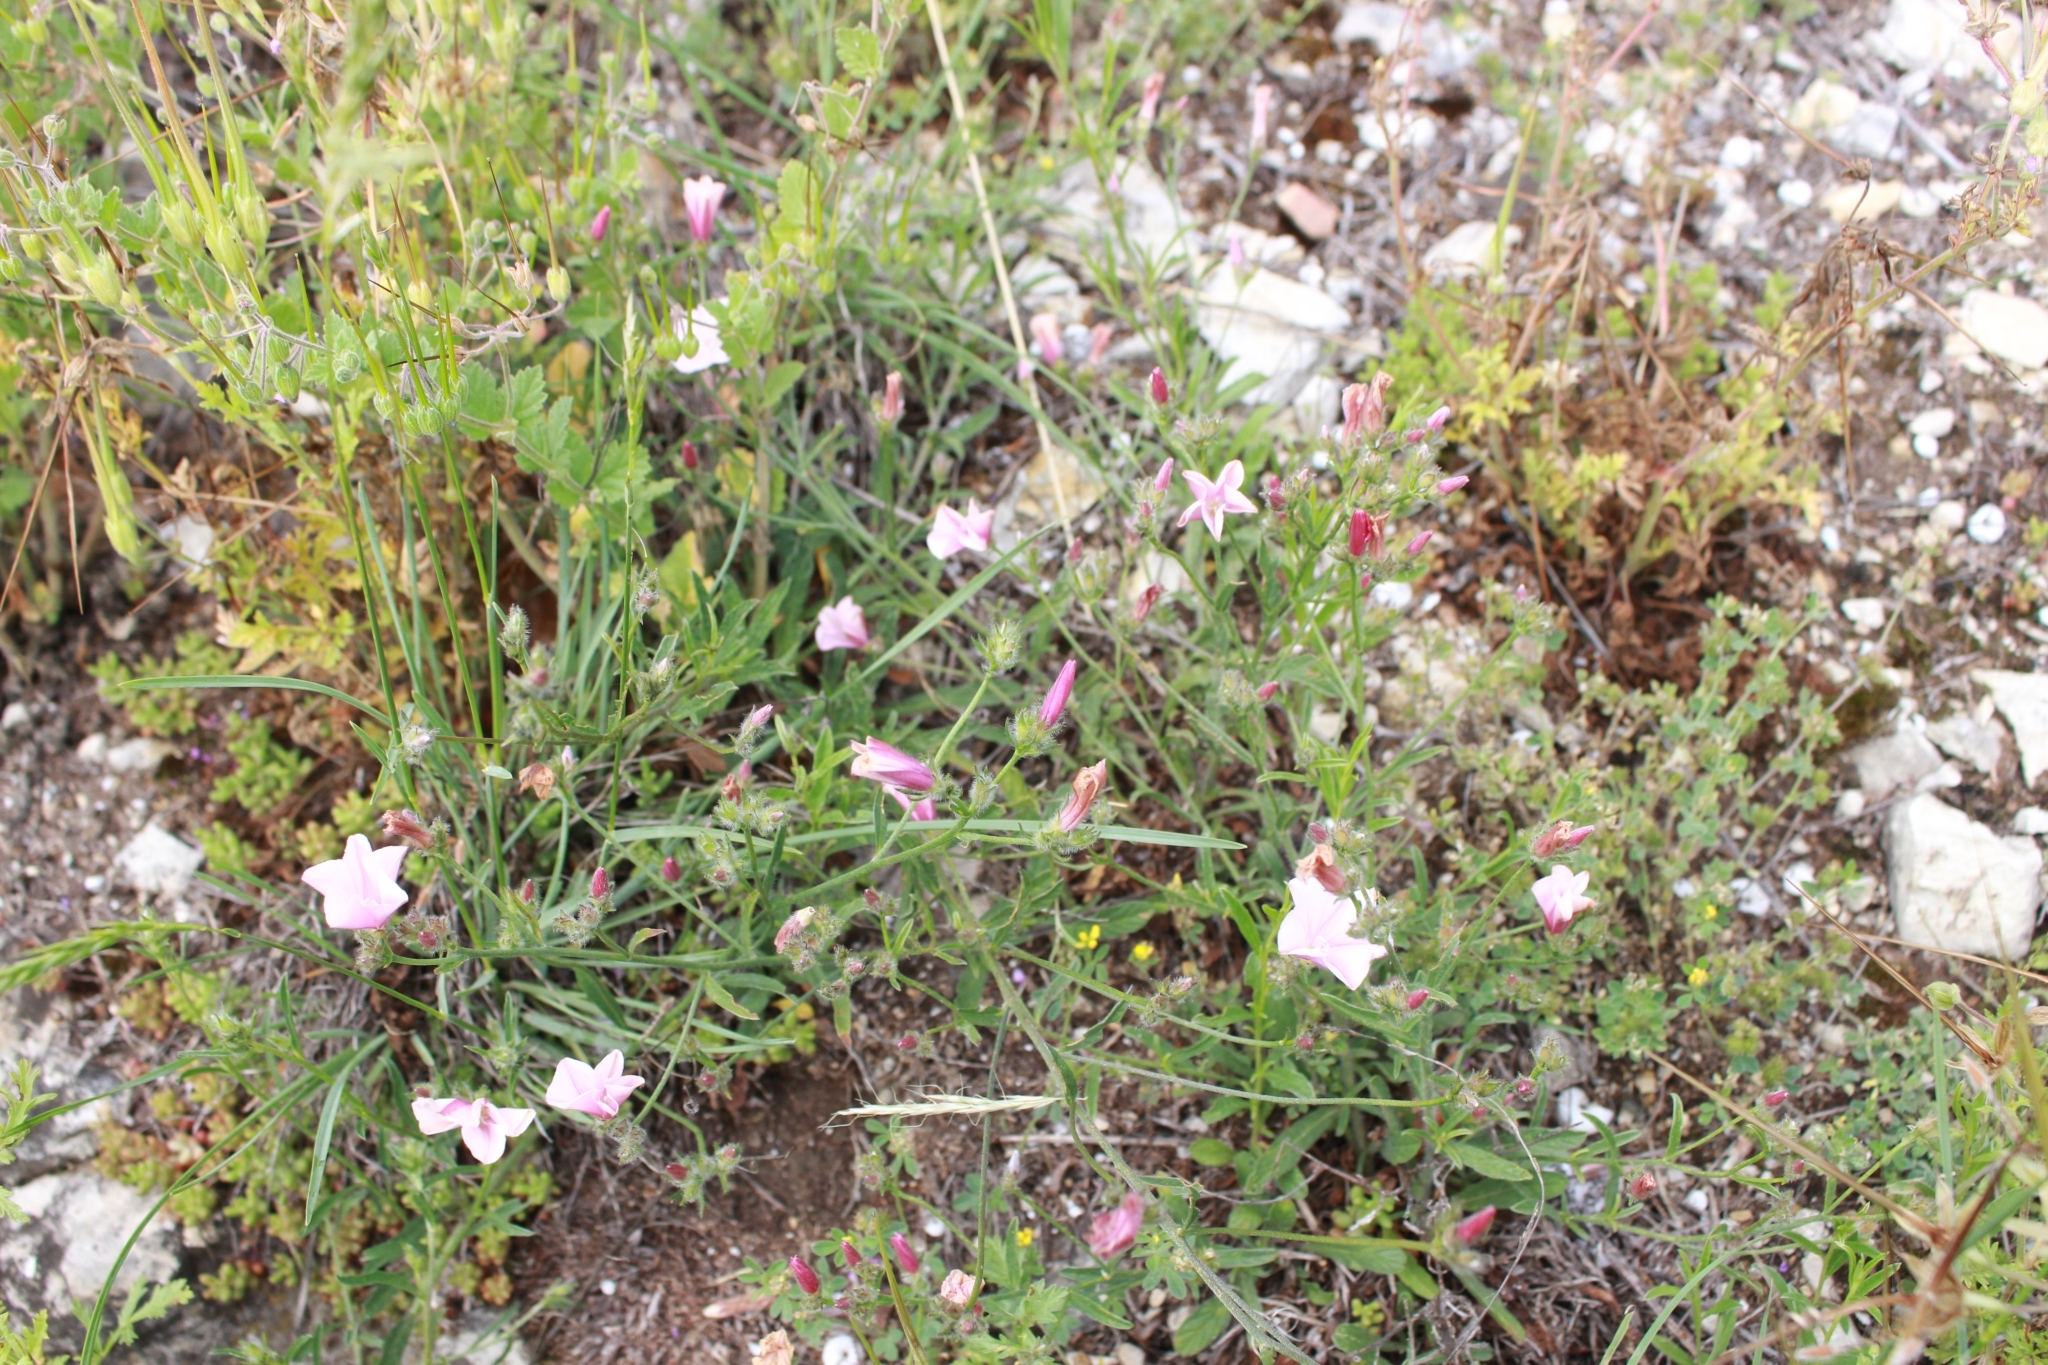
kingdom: Plantae
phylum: Tracheophyta
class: Magnoliopsida
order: Solanales
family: Convolvulaceae
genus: Convolvulus
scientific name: Convolvulus cantabrica
